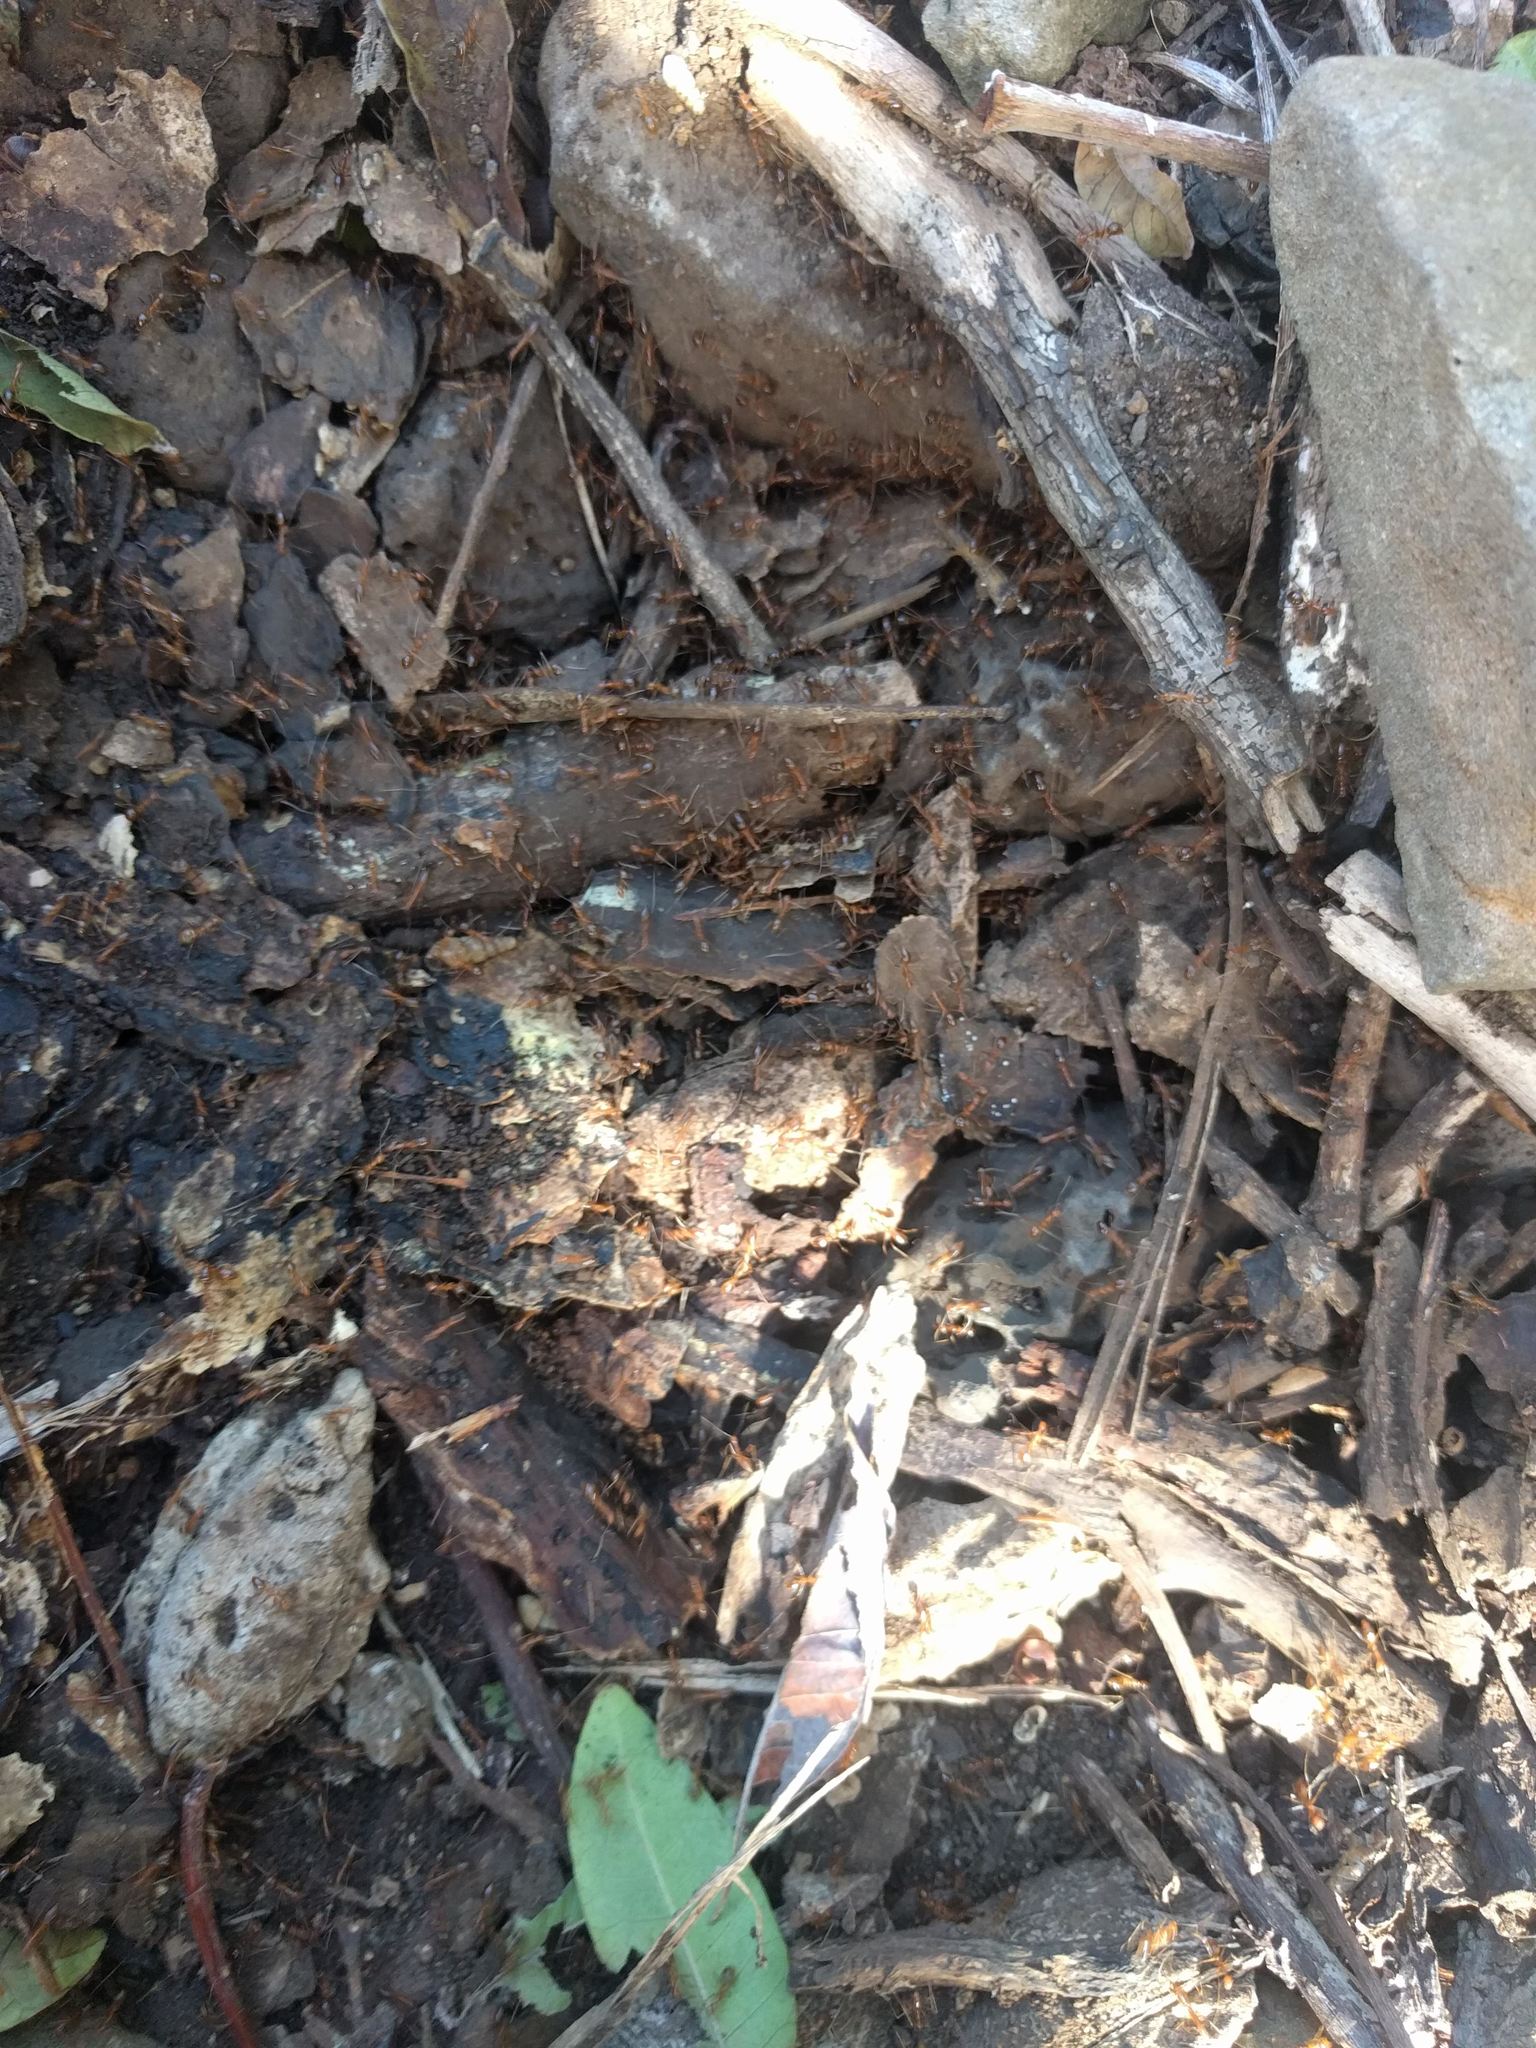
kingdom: Animalia
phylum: Arthropoda
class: Insecta
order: Hymenoptera
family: Formicidae
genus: Anoplolepis
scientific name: Anoplolepis gracilipes
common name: Ant
